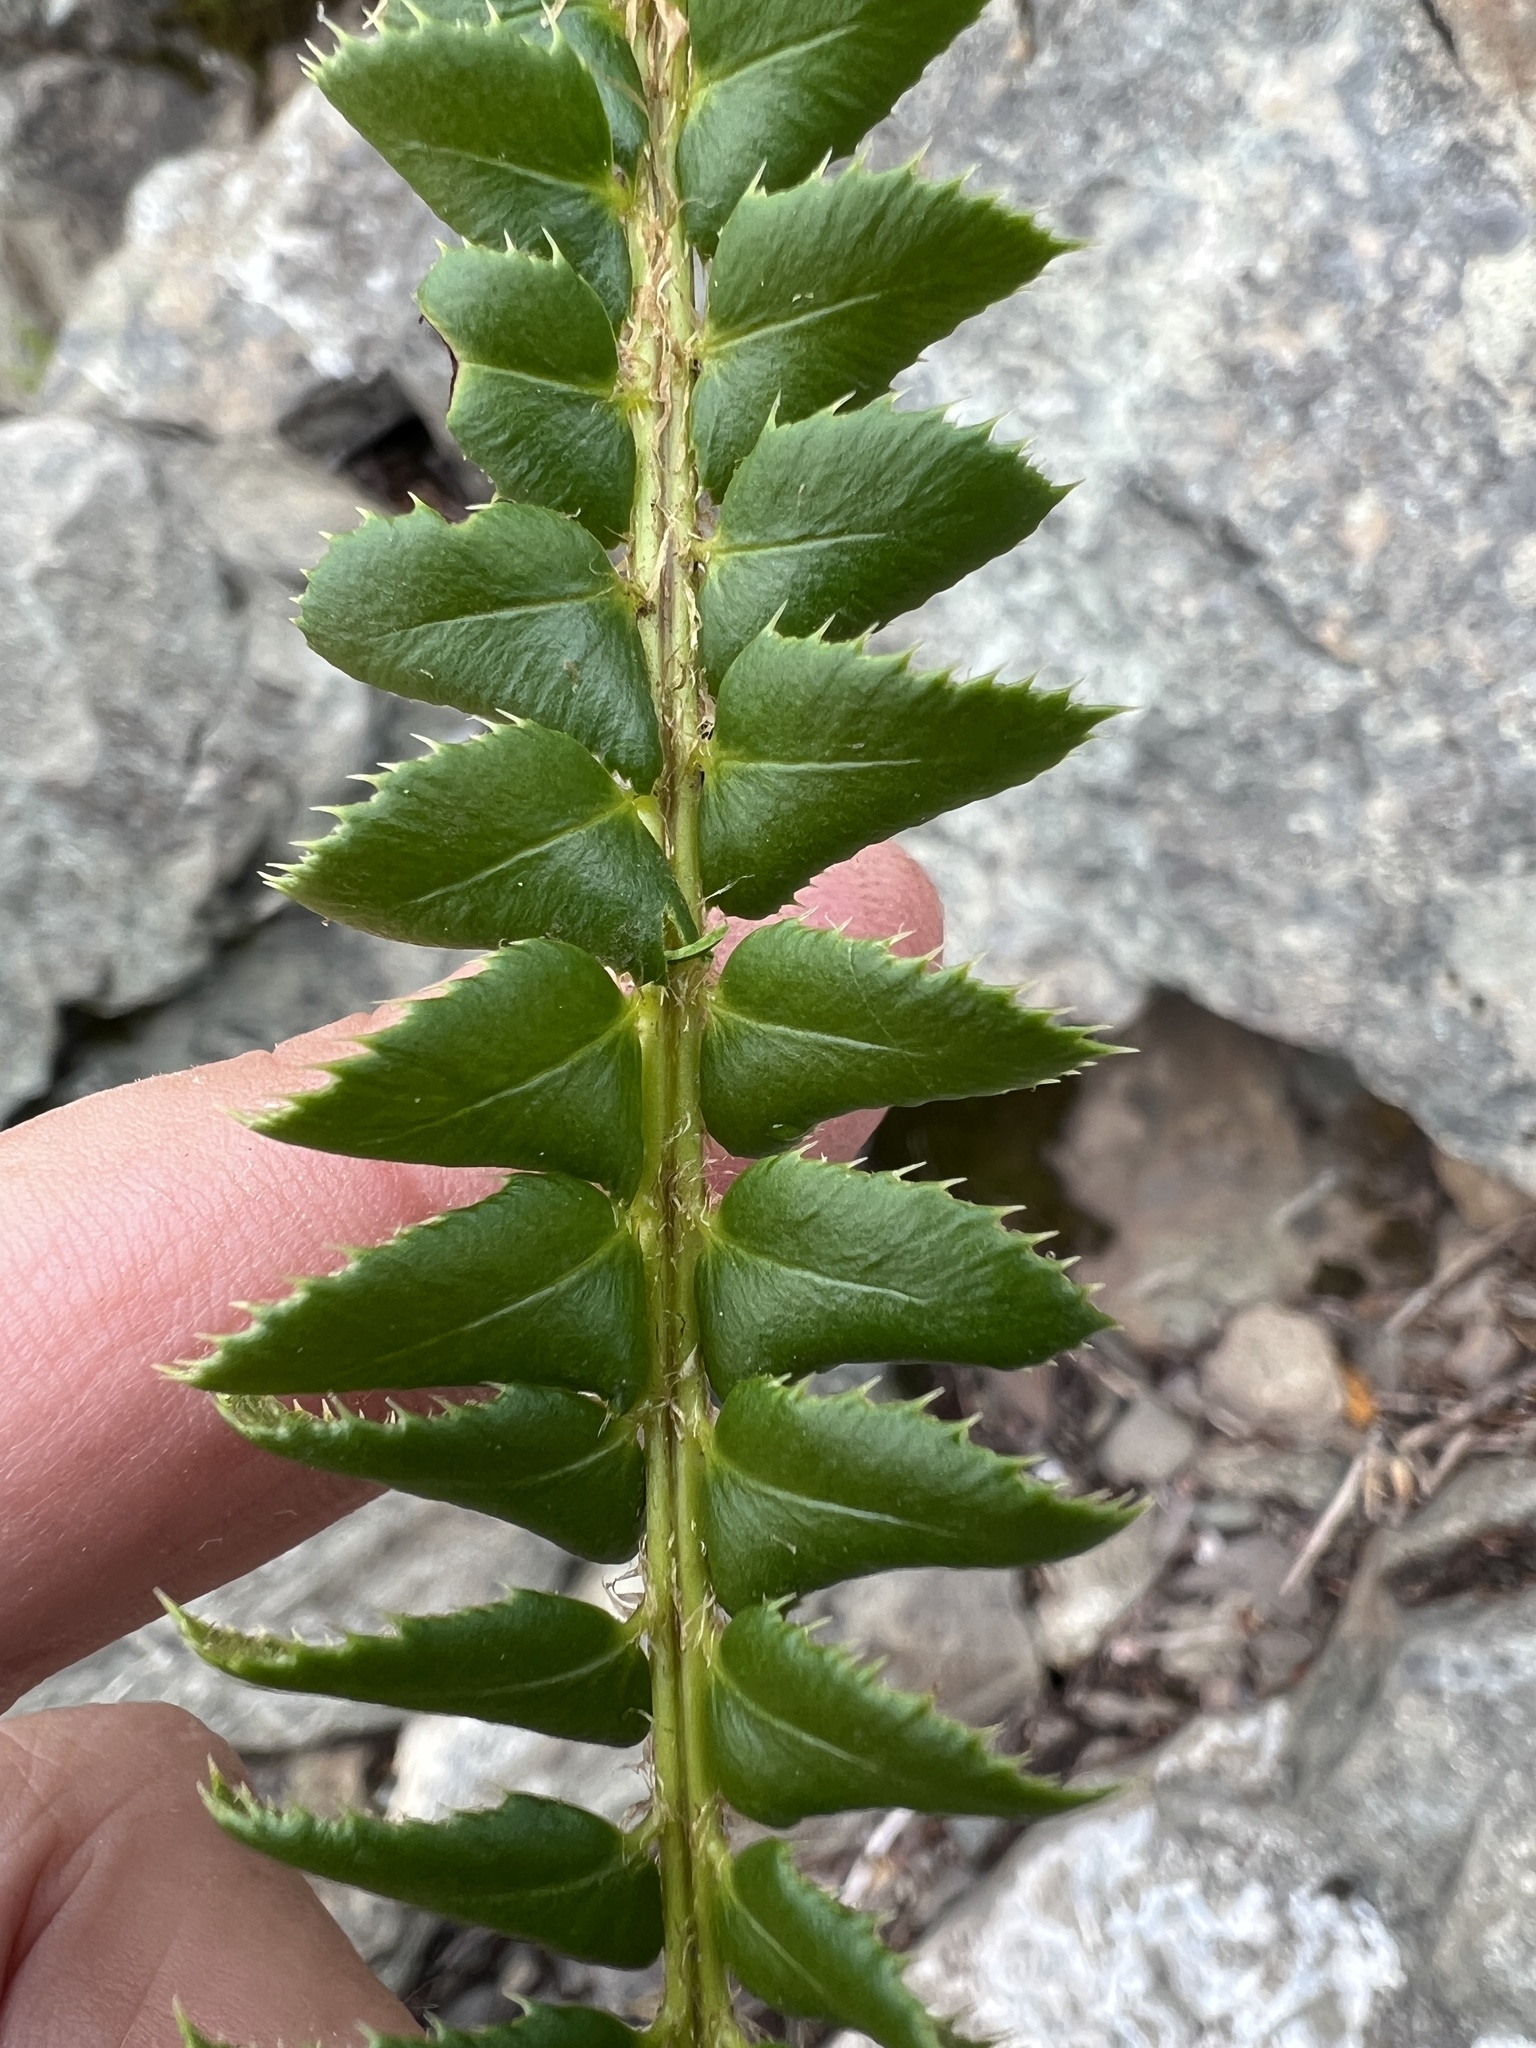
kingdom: Plantae
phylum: Tracheophyta
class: Polypodiopsida
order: Polypodiales
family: Dryopteridaceae
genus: Polystichum
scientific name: Polystichum lonchitis
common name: Holly fern
